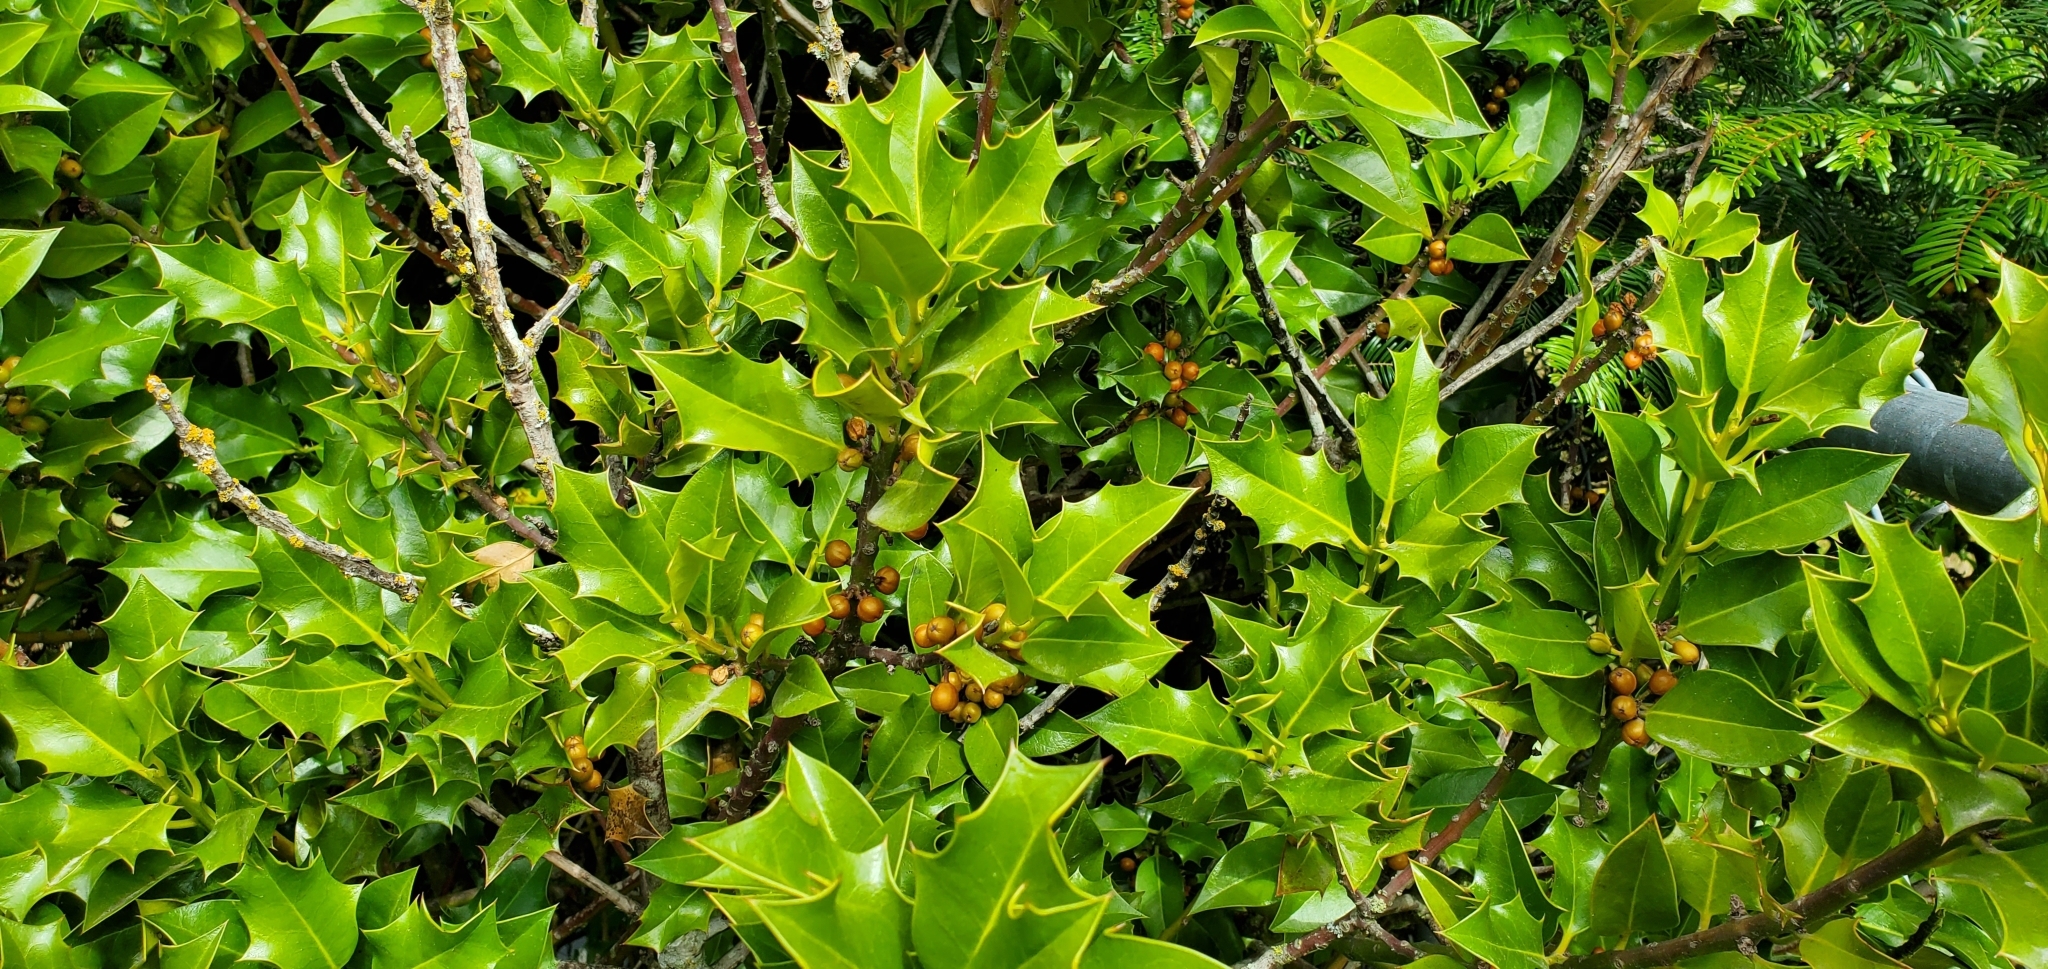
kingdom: Plantae
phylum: Tracheophyta
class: Magnoliopsida
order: Aquifoliales
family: Aquifoliaceae
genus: Ilex
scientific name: Ilex aquifolium
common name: English holly
